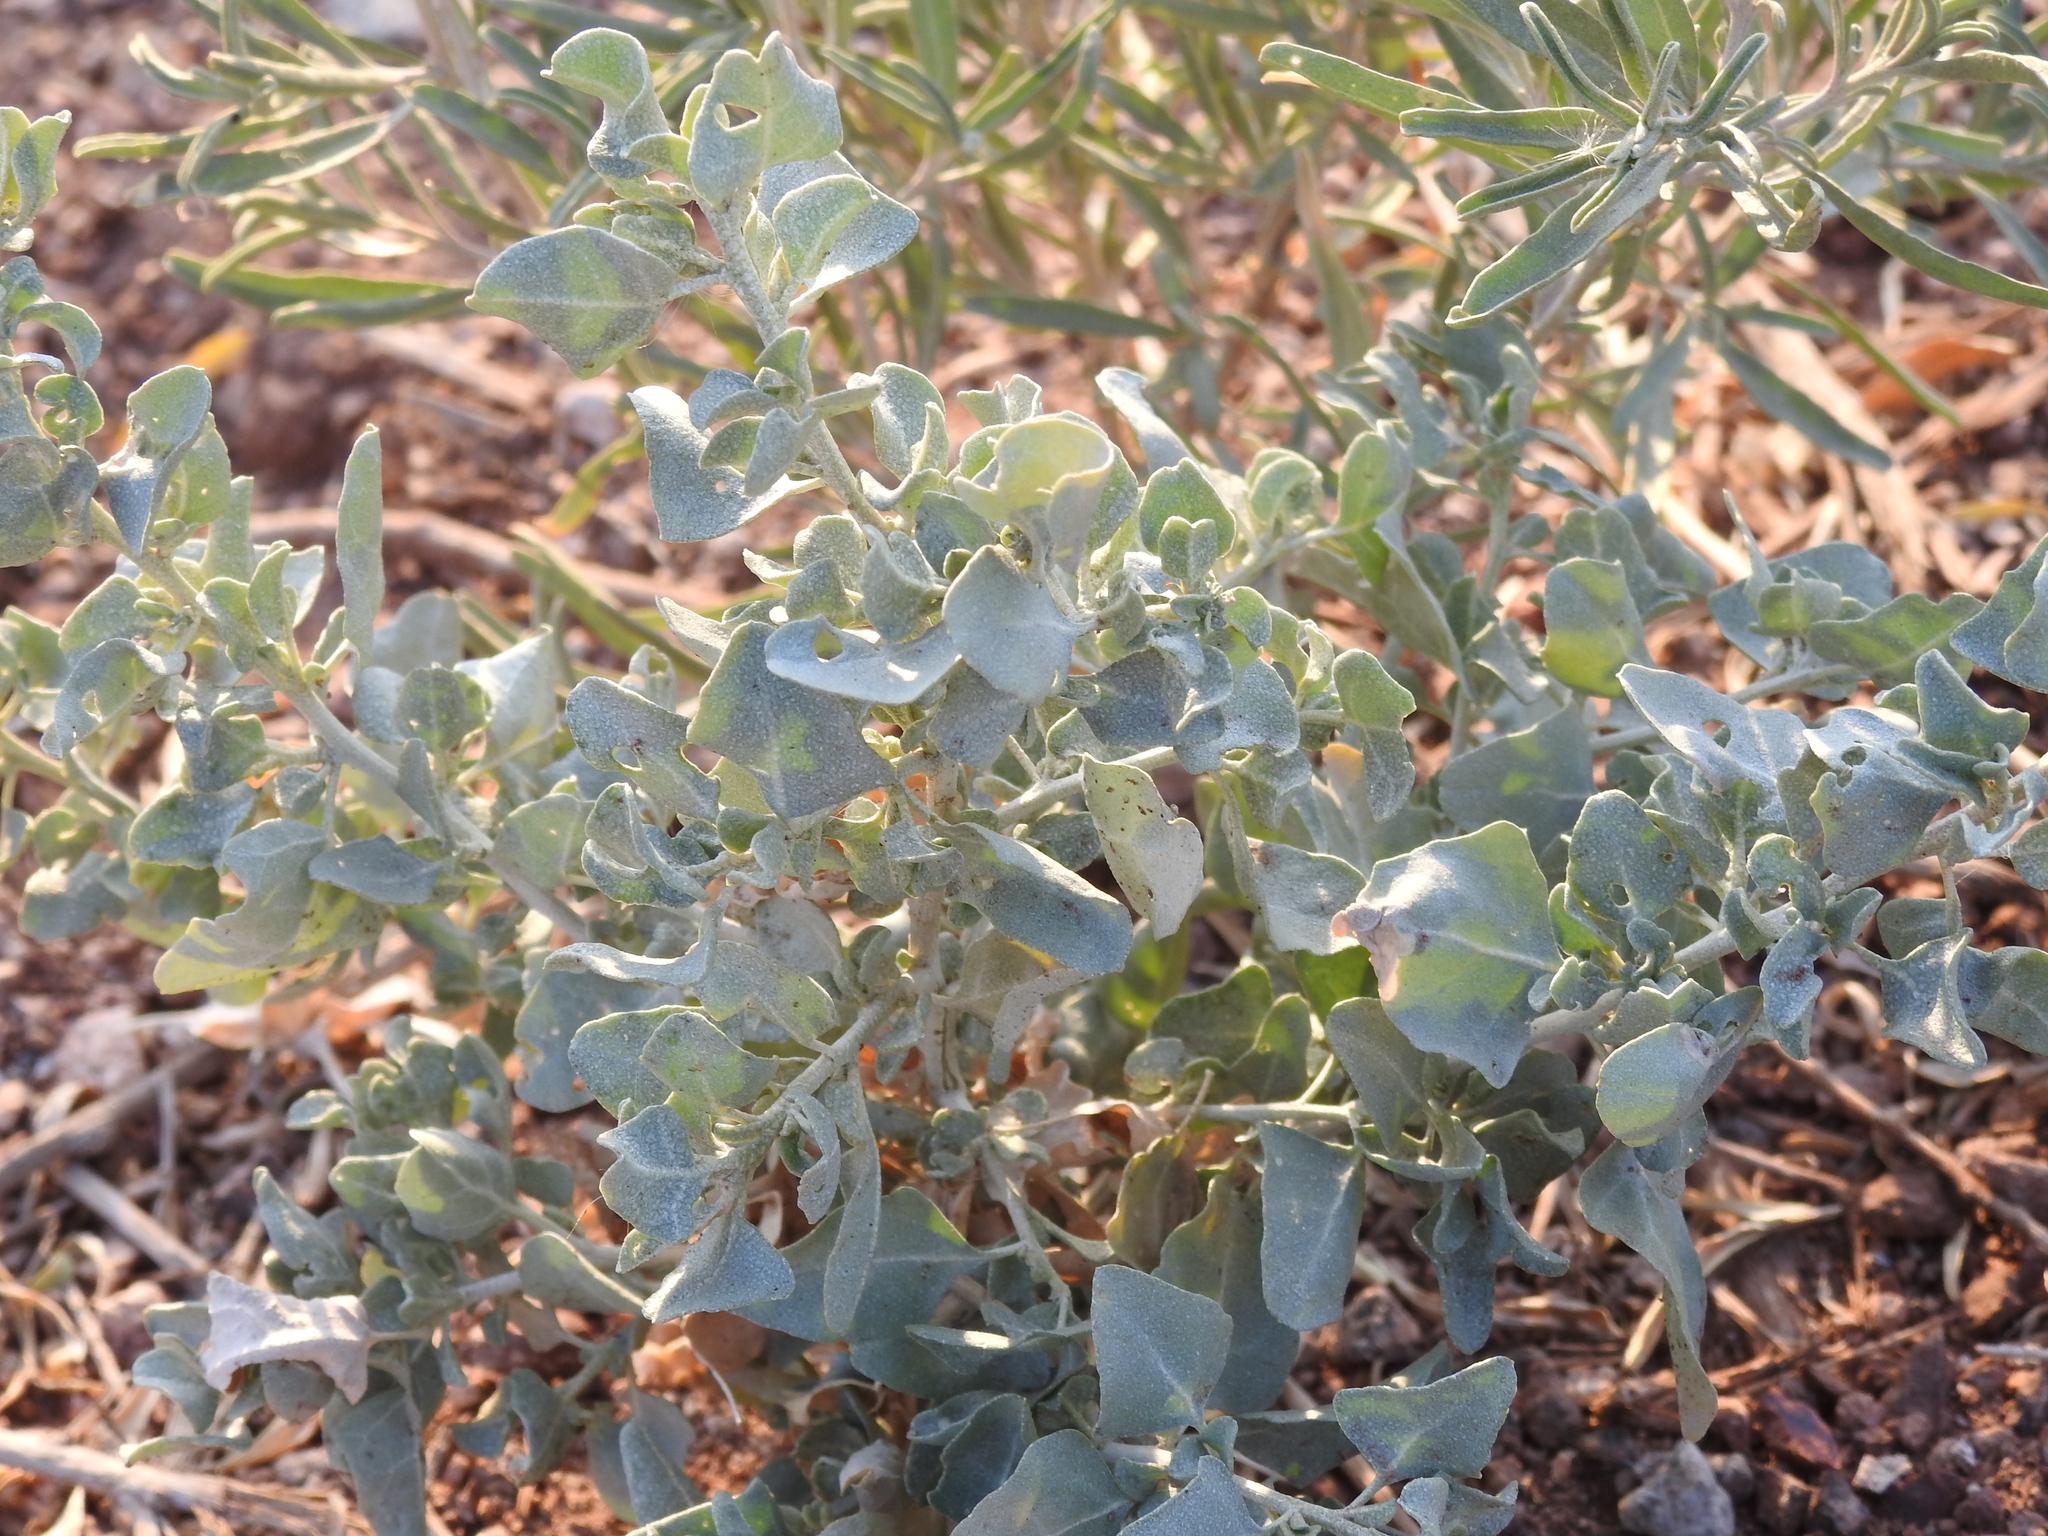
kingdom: Plantae
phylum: Tracheophyta
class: Magnoliopsida
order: Caryophyllales
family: Amaranthaceae
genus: Atriplex
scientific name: Atriplex lentiformis
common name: Big saltbush
